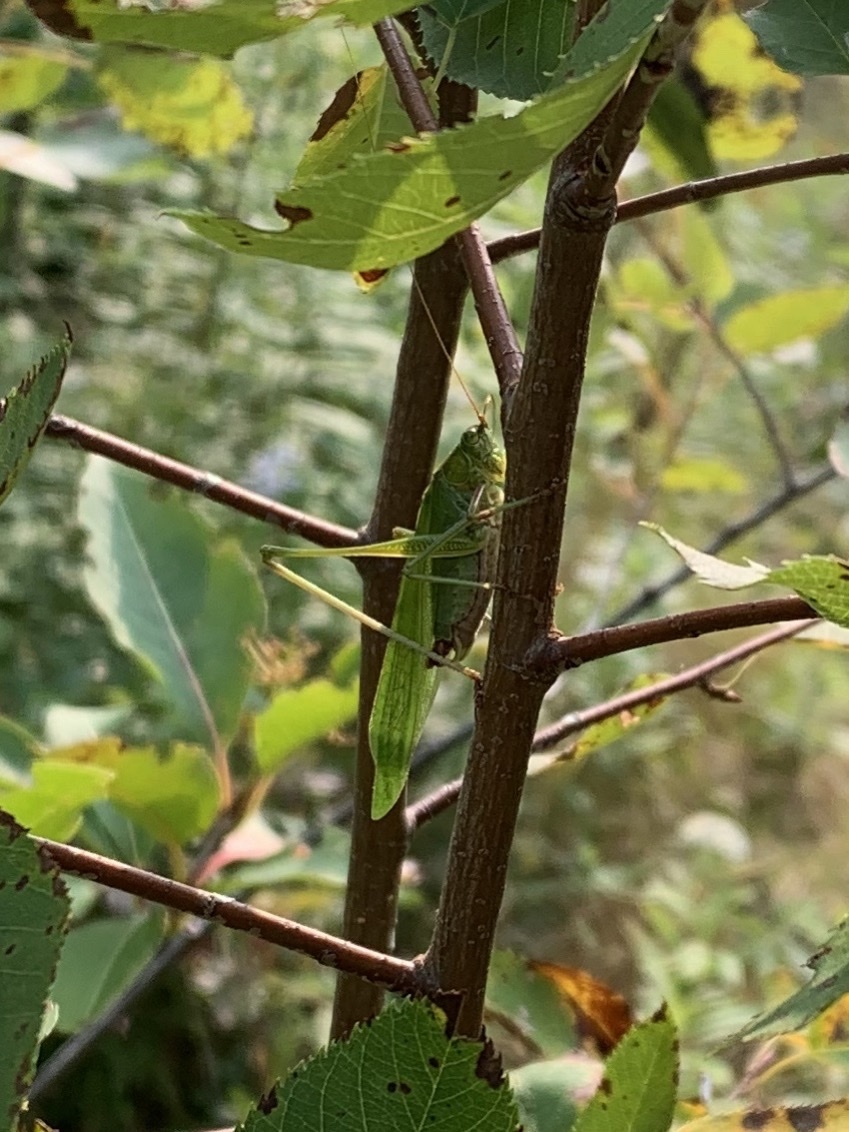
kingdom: Animalia
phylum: Arthropoda
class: Insecta
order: Orthoptera
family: Tettigoniidae
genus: Scudderia
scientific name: Scudderia furcata
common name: Fork-tailed bush katydid
